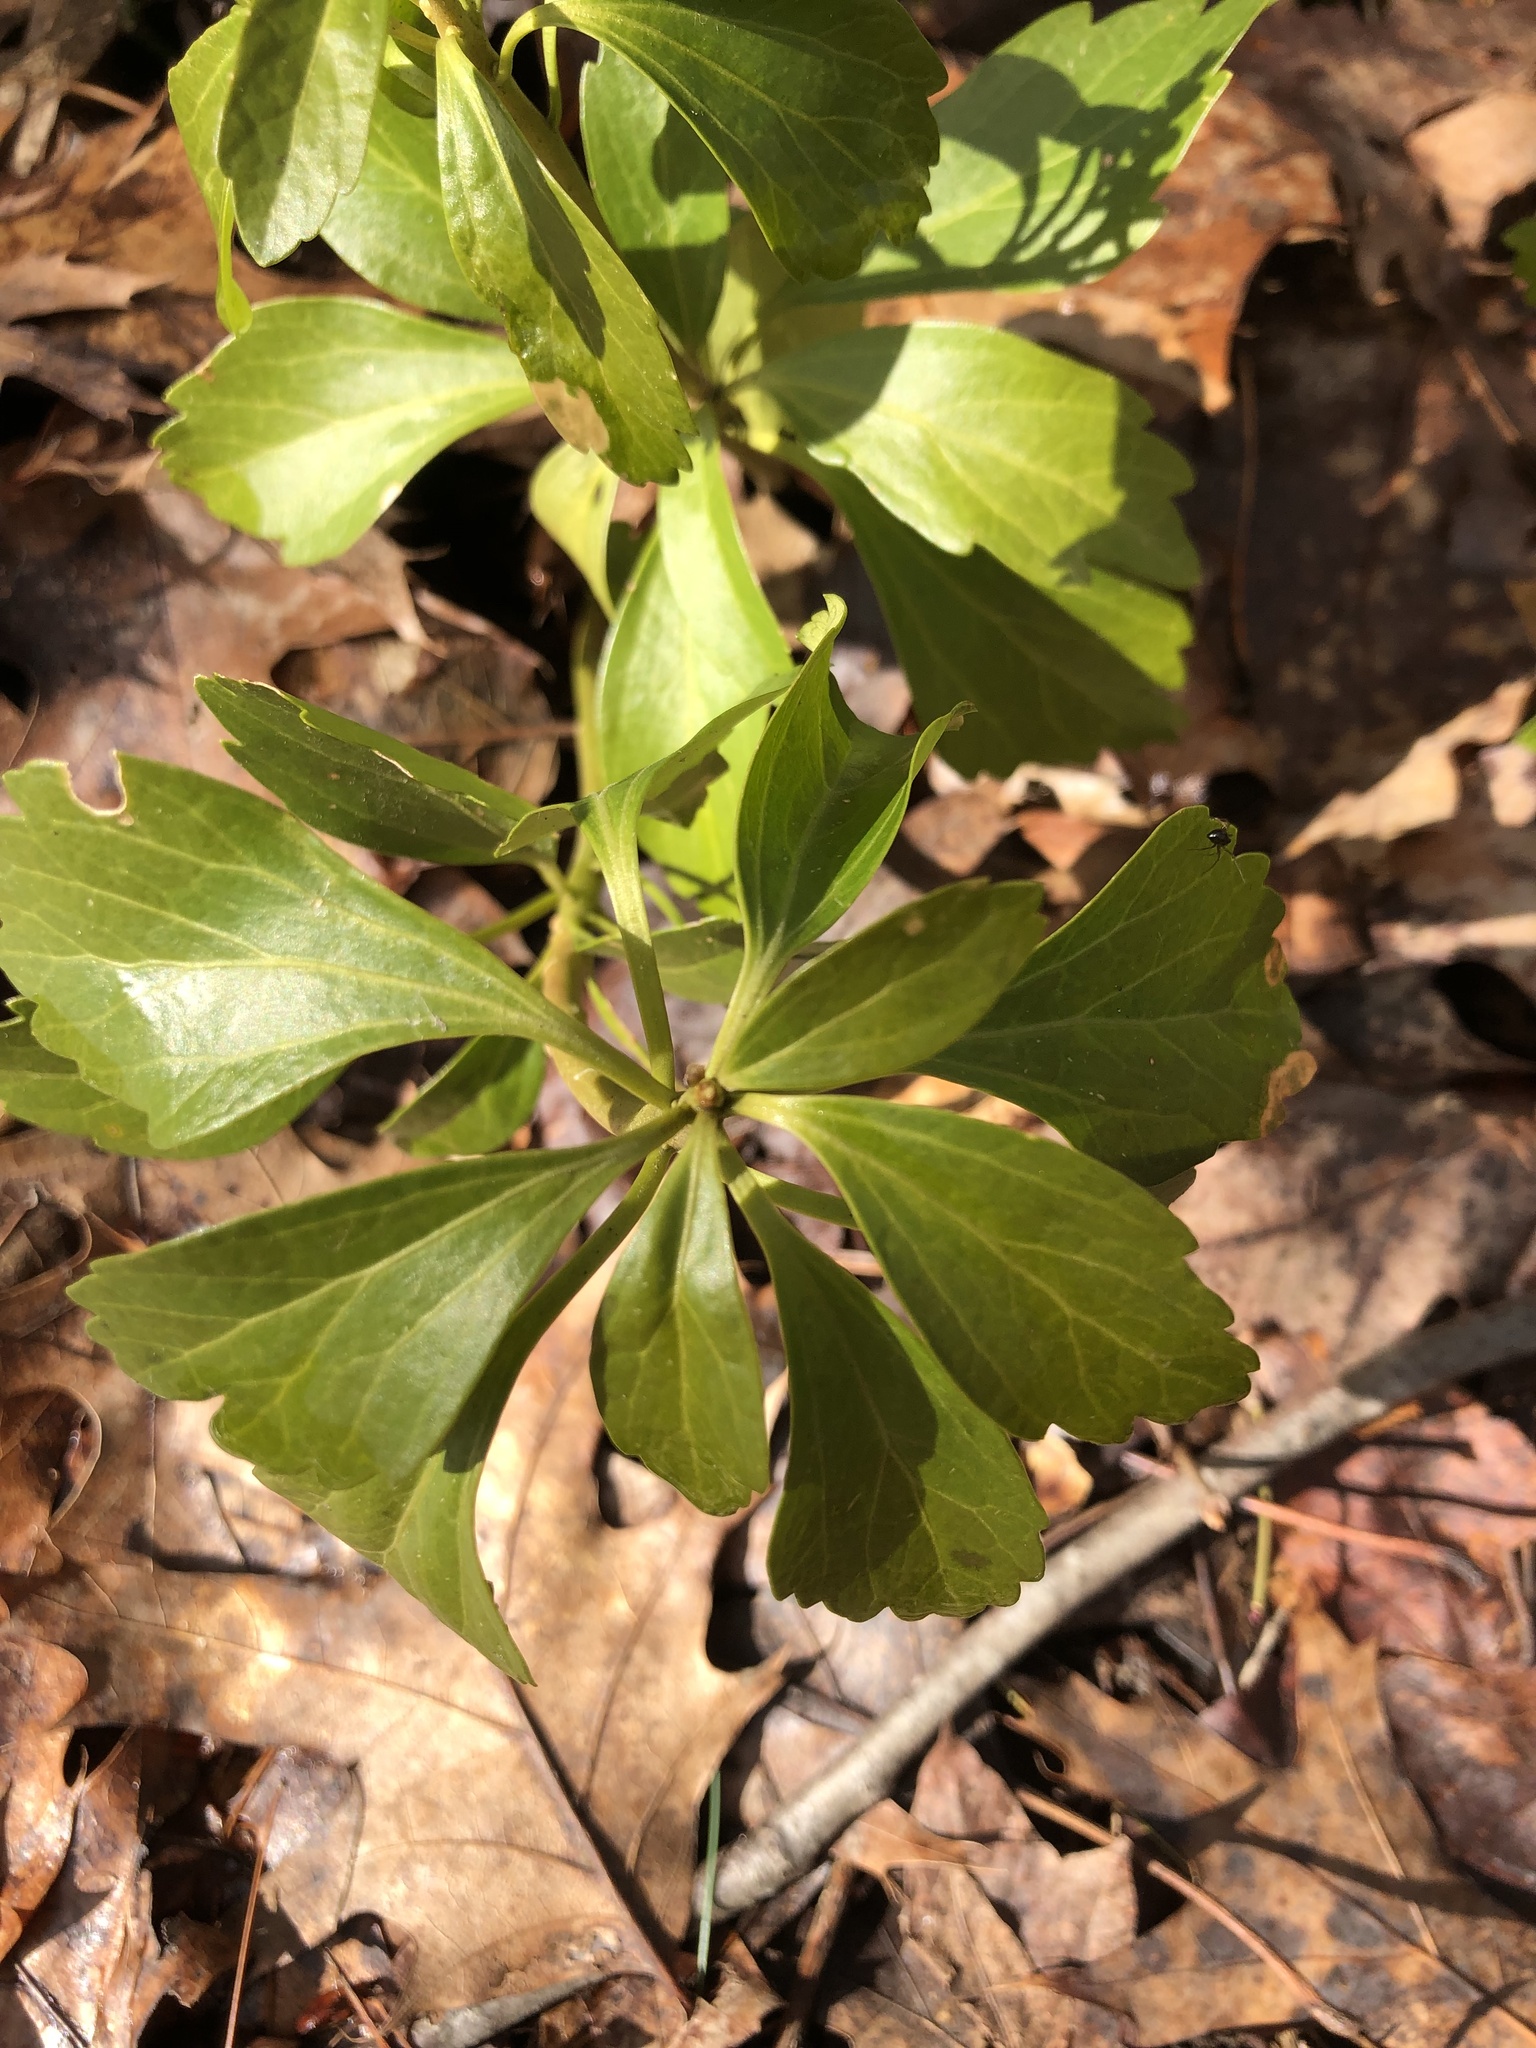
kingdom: Plantae
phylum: Tracheophyta
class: Magnoliopsida
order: Buxales
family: Buxaceae
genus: Pachysandra
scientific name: Pachysandra terminalis
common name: Japanese pachysandra
